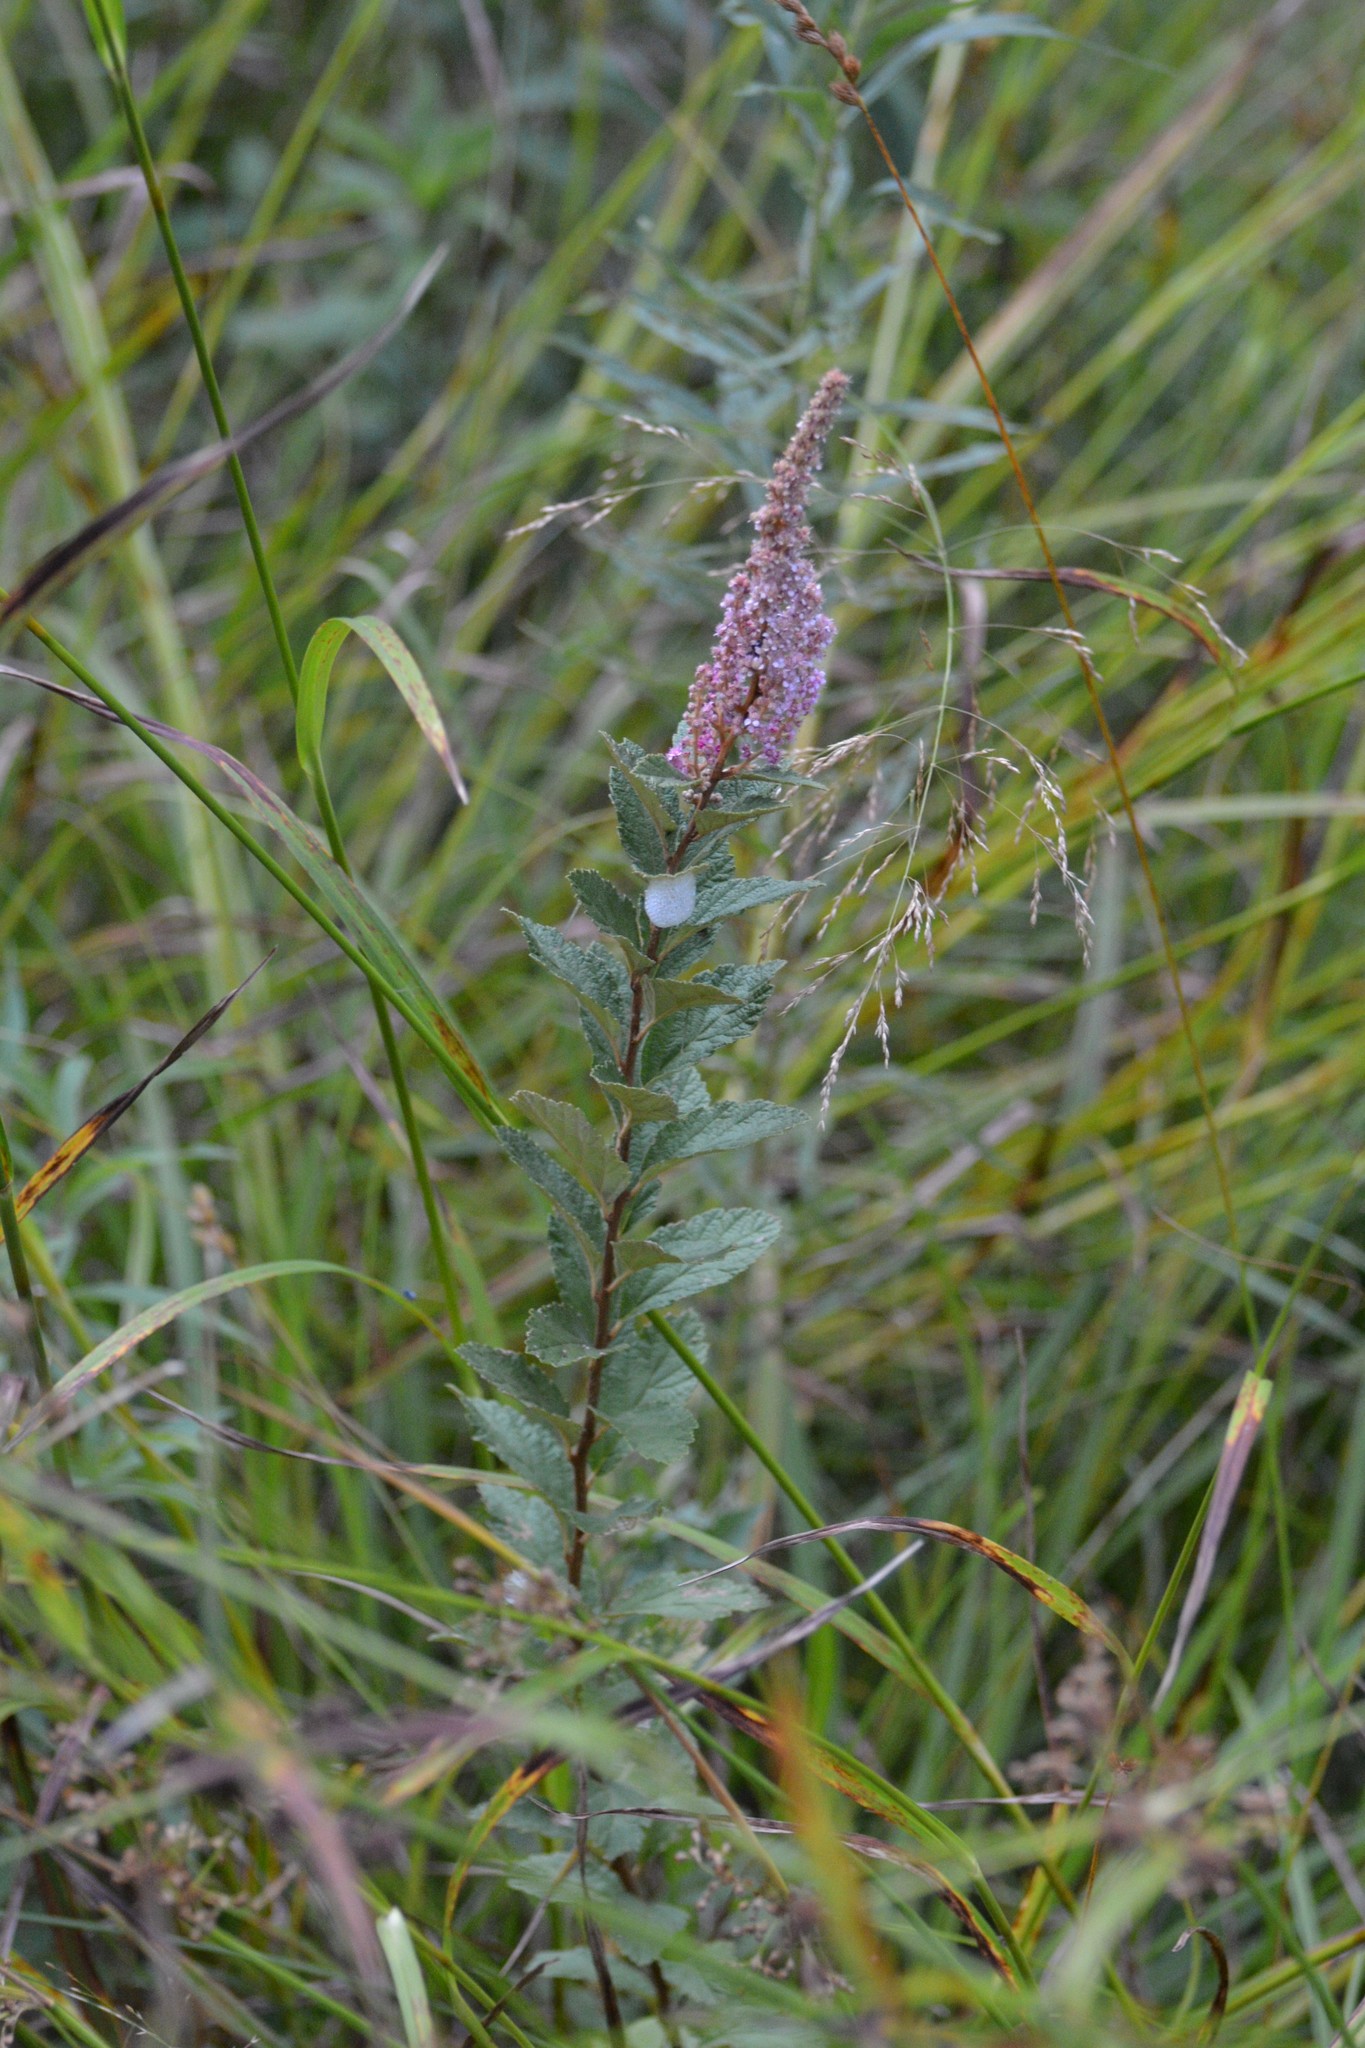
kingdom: Plantae
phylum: Tracheophyta
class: Magnoliopsida
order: Rosales
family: Rosaceae
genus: Spiraea
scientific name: Spiraea tomentosa
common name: Hardhack
